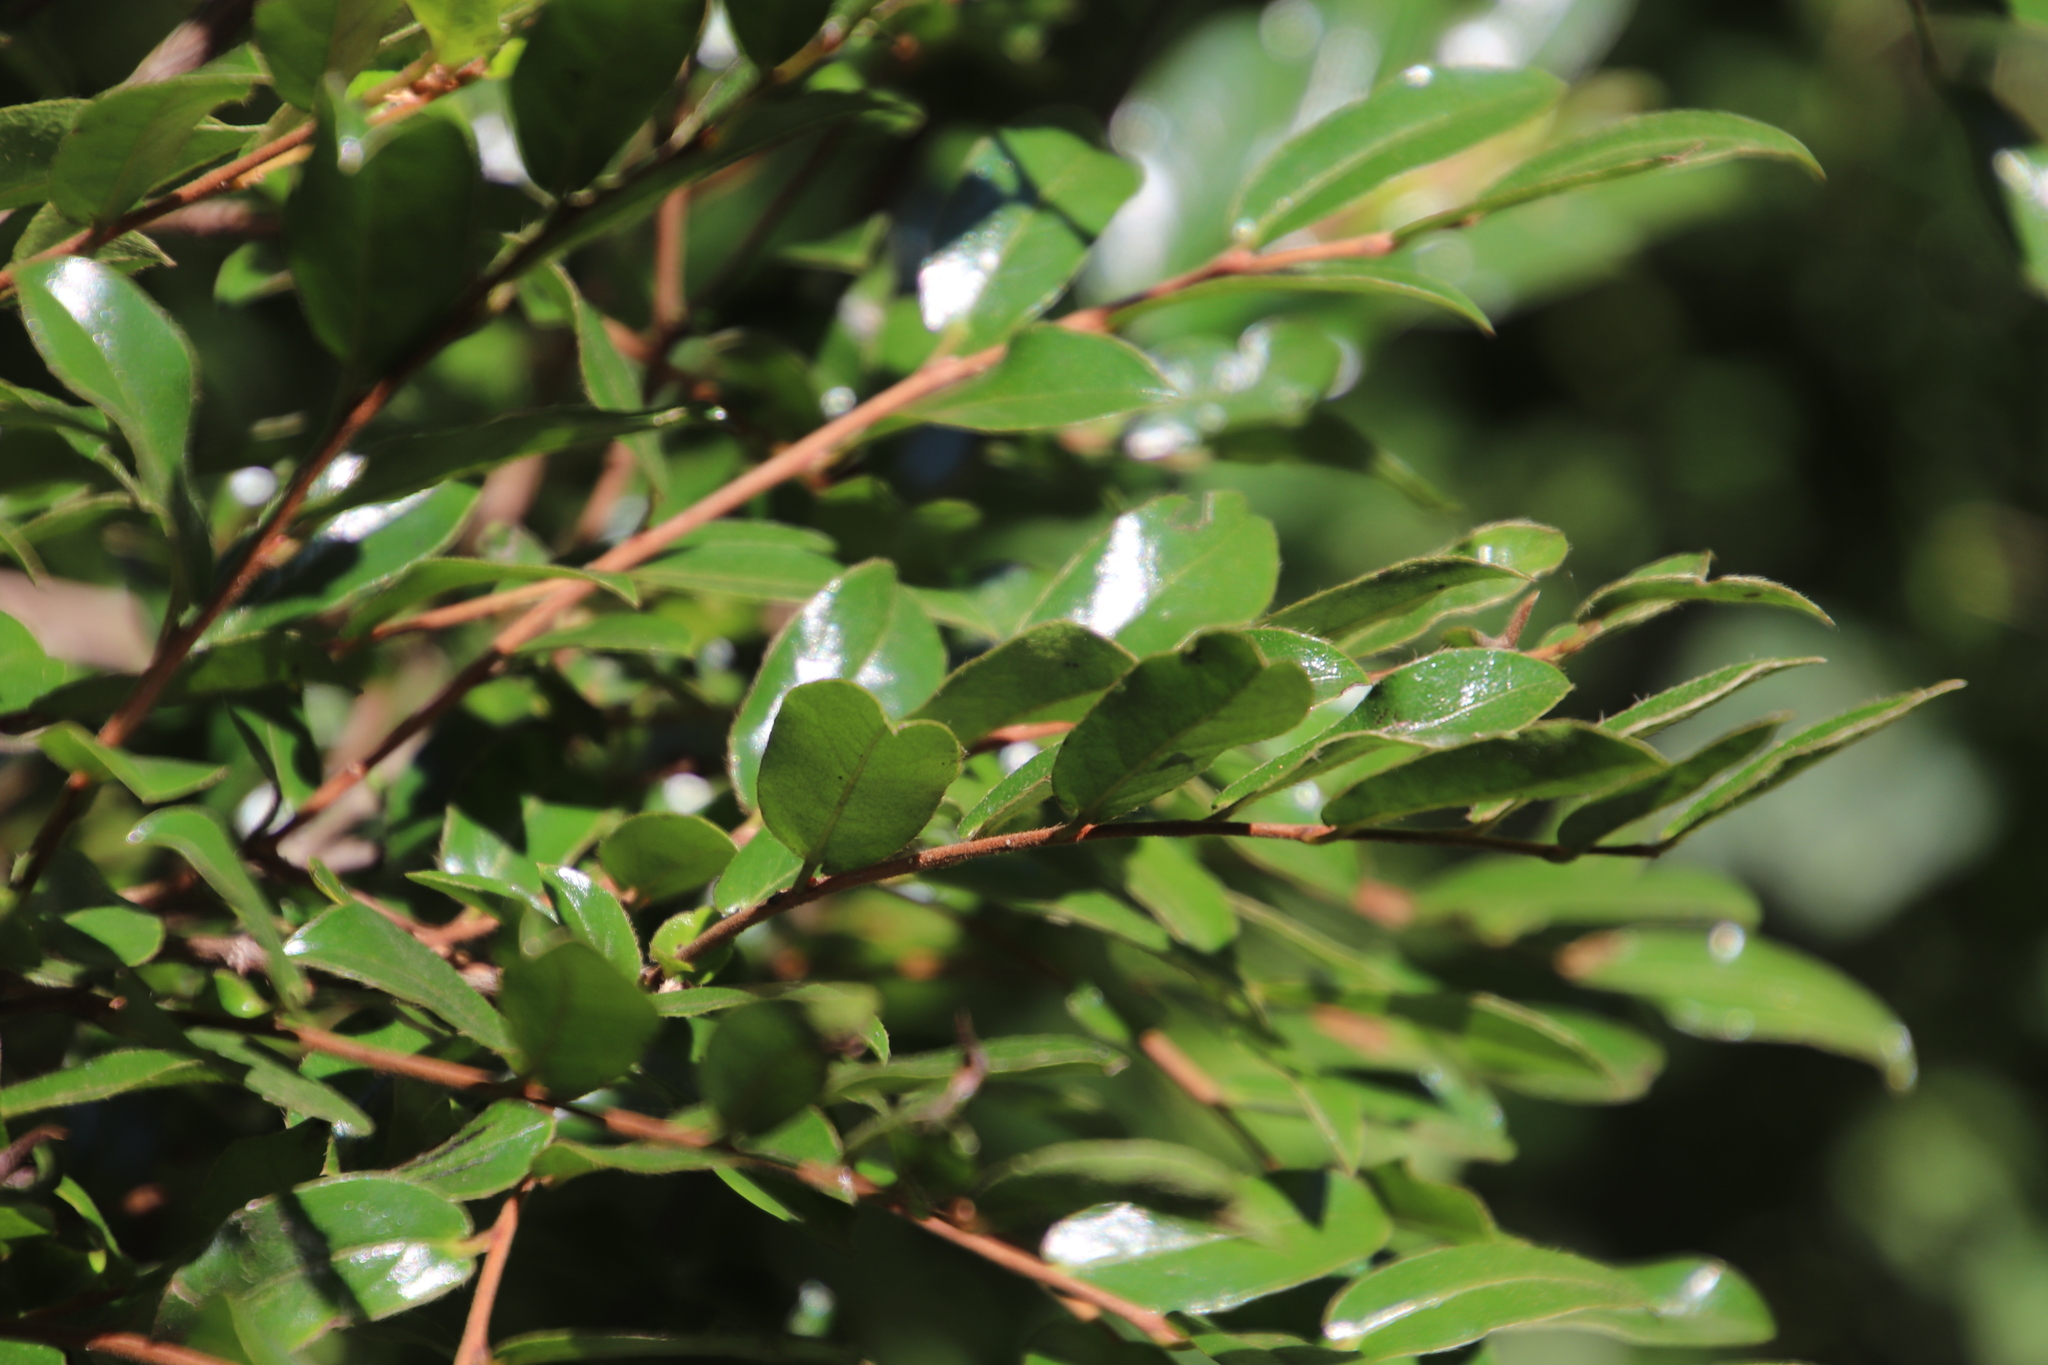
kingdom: Plantae
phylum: Tracheophyta
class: Magnoliopsida
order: Ericales
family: Ebenaceae
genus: Diospyros
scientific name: Diospyros whyteana
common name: Bladder-nut
